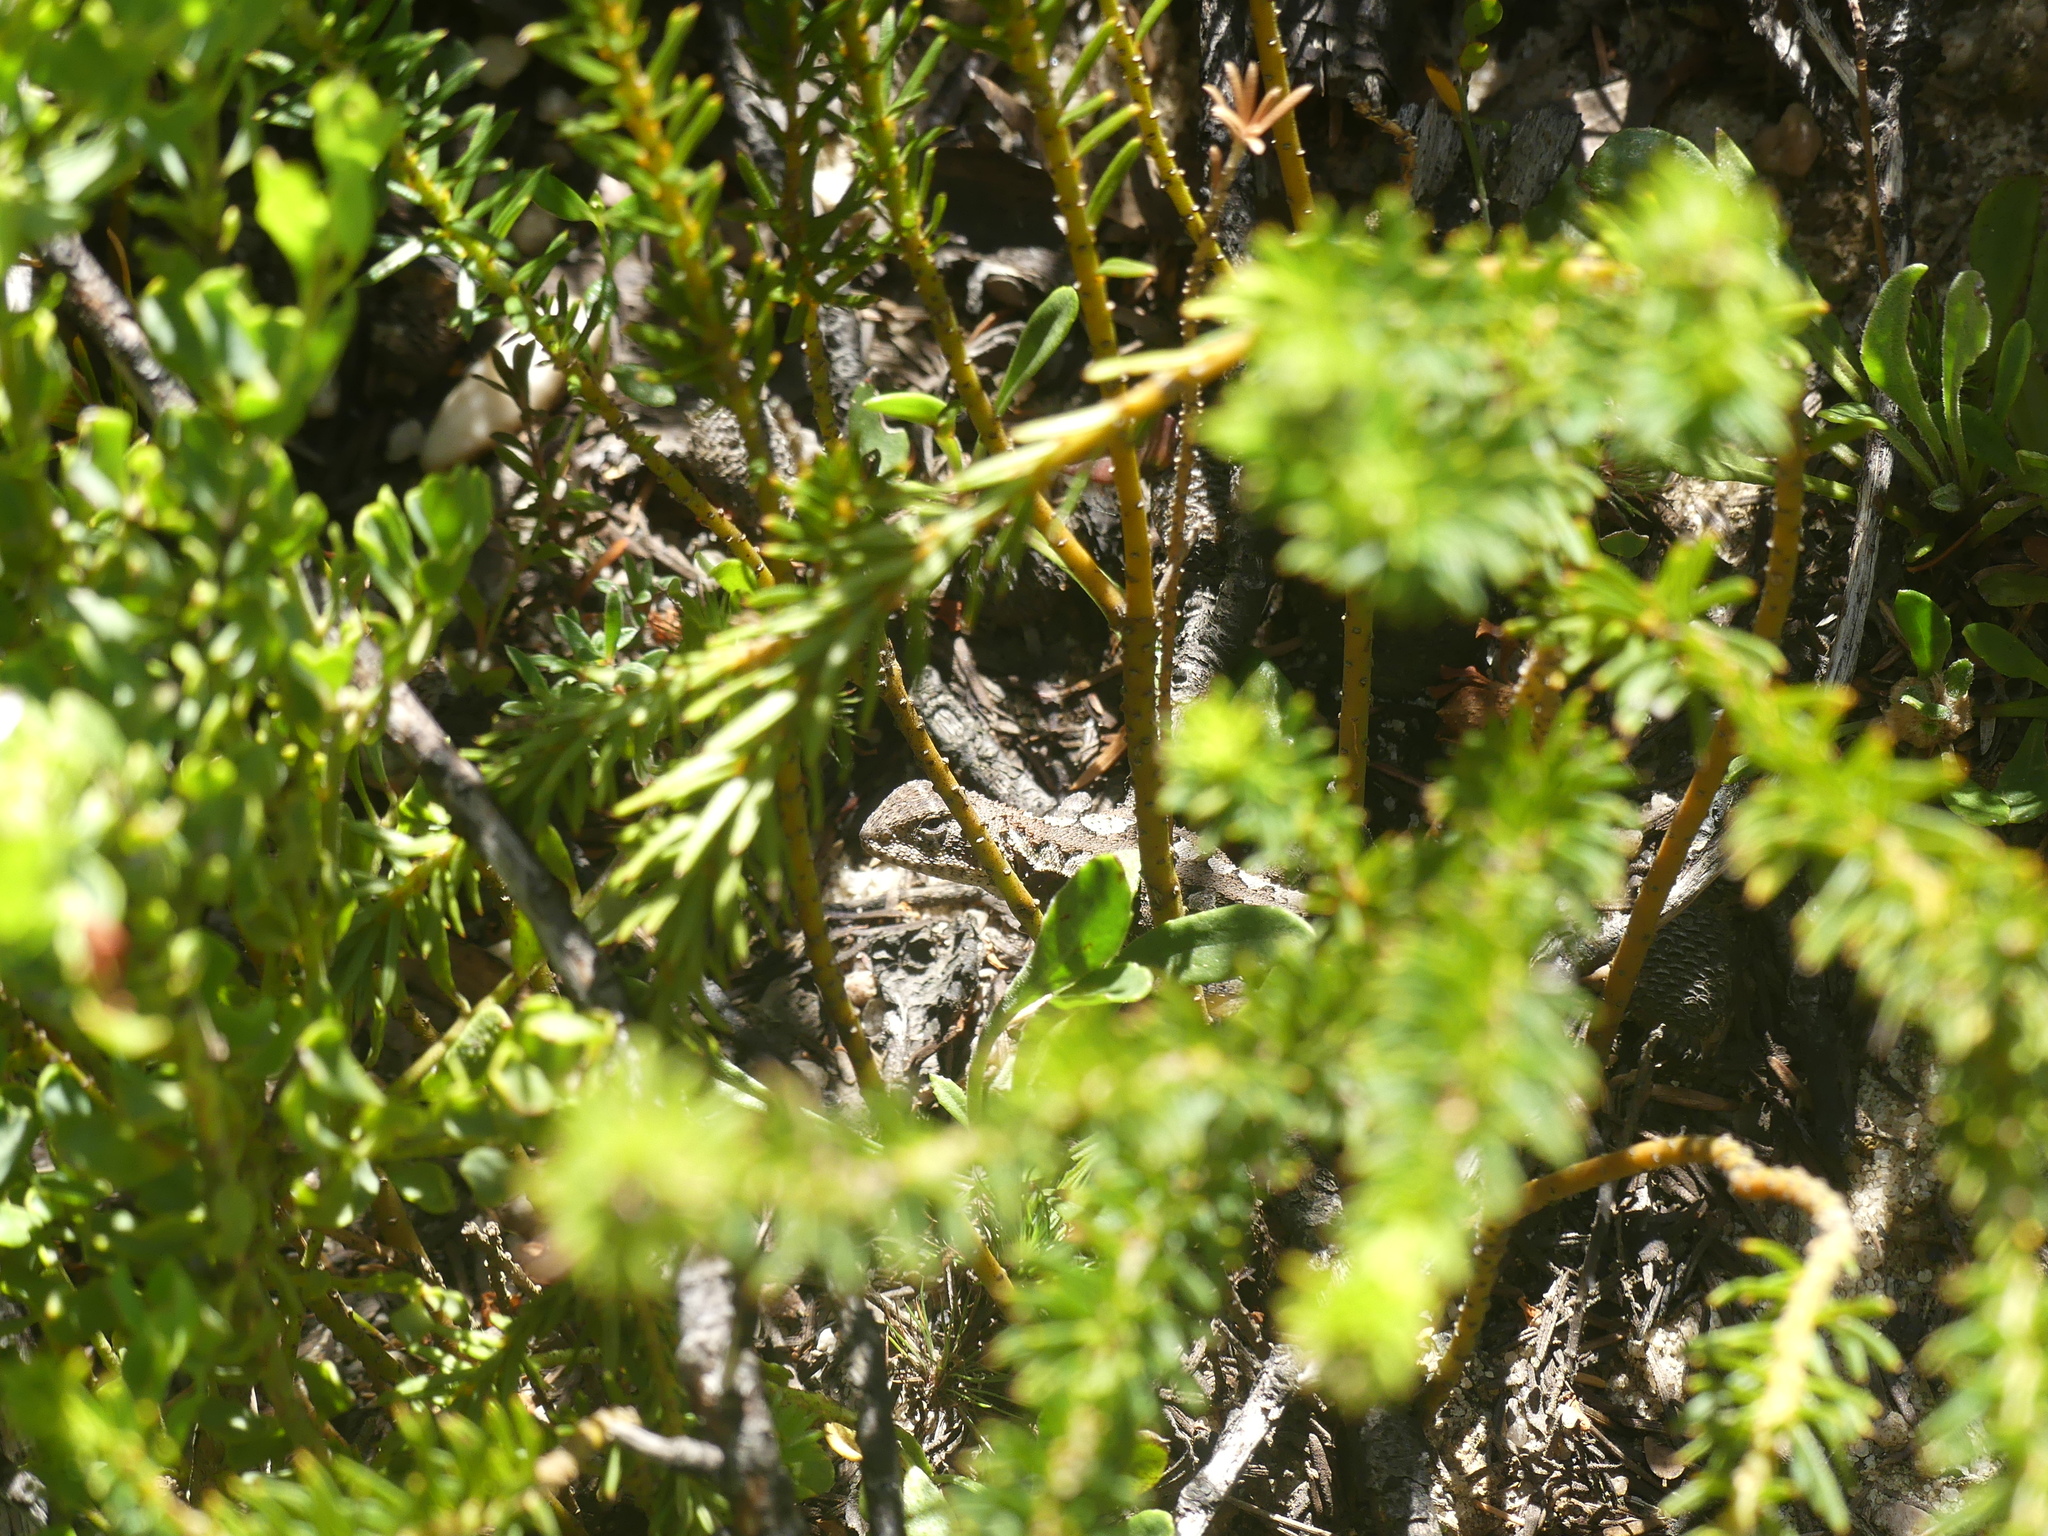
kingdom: Animalia
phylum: Chordata
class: Squamata
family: Agamidae
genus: Rankinia
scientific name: Rankinia diemensis
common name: Mountain dragon
